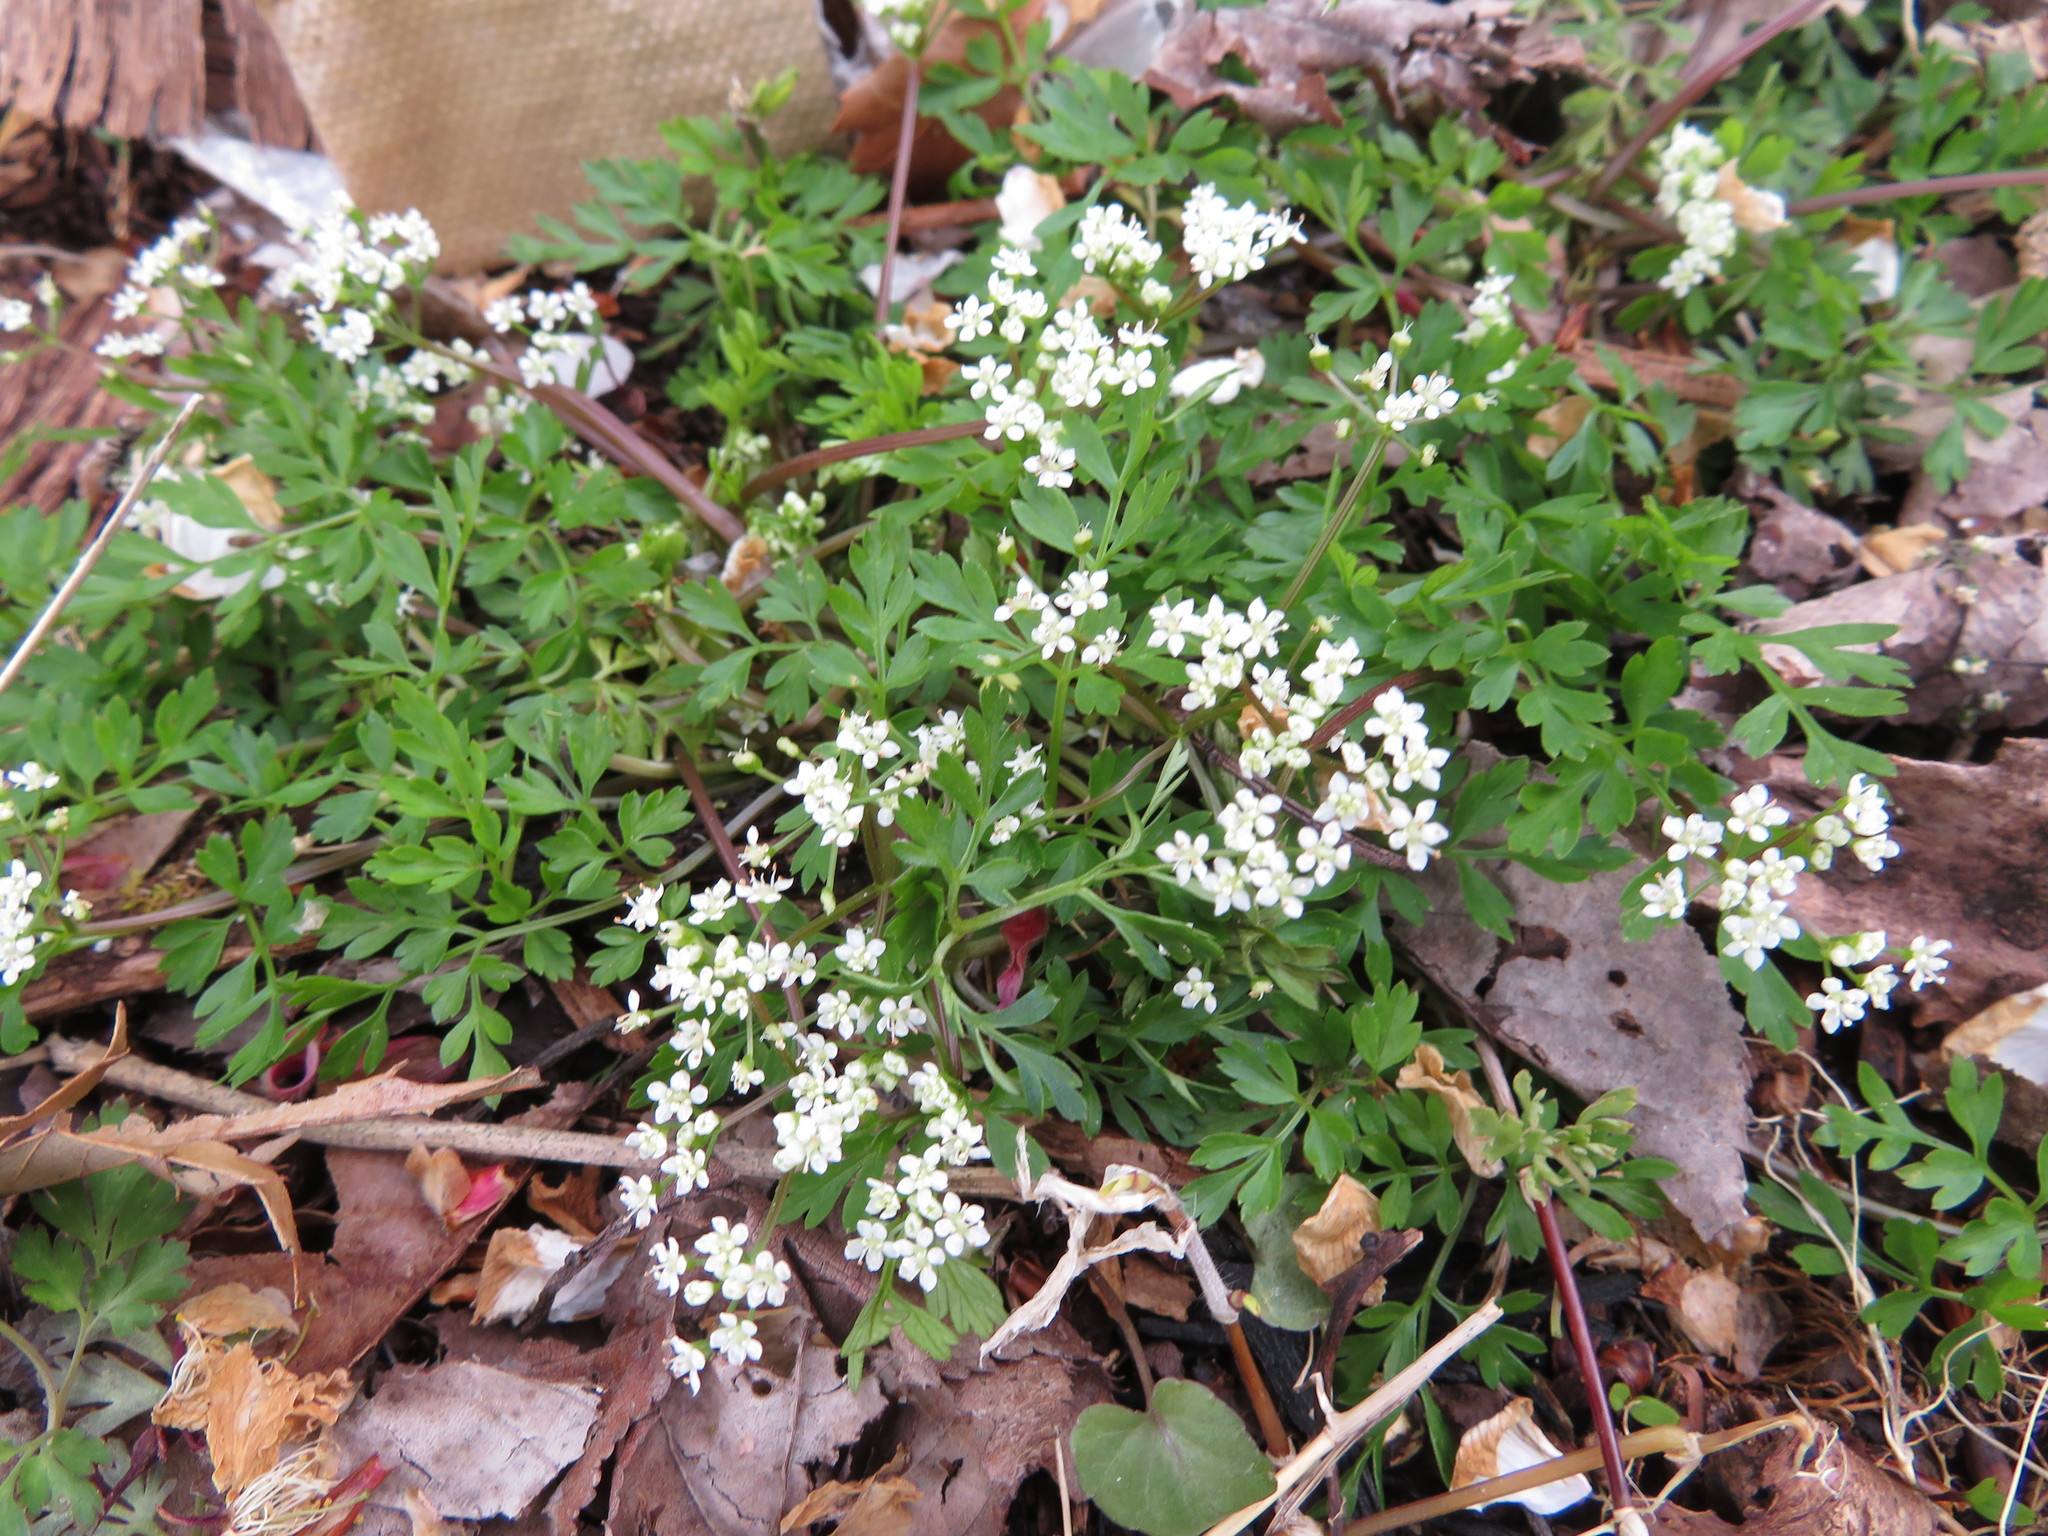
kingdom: Plantae
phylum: Tracheophyta
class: Magnoliopsida
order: Apiales
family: Apiaceae
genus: Aegopodium
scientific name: Aegopodium decumbens
